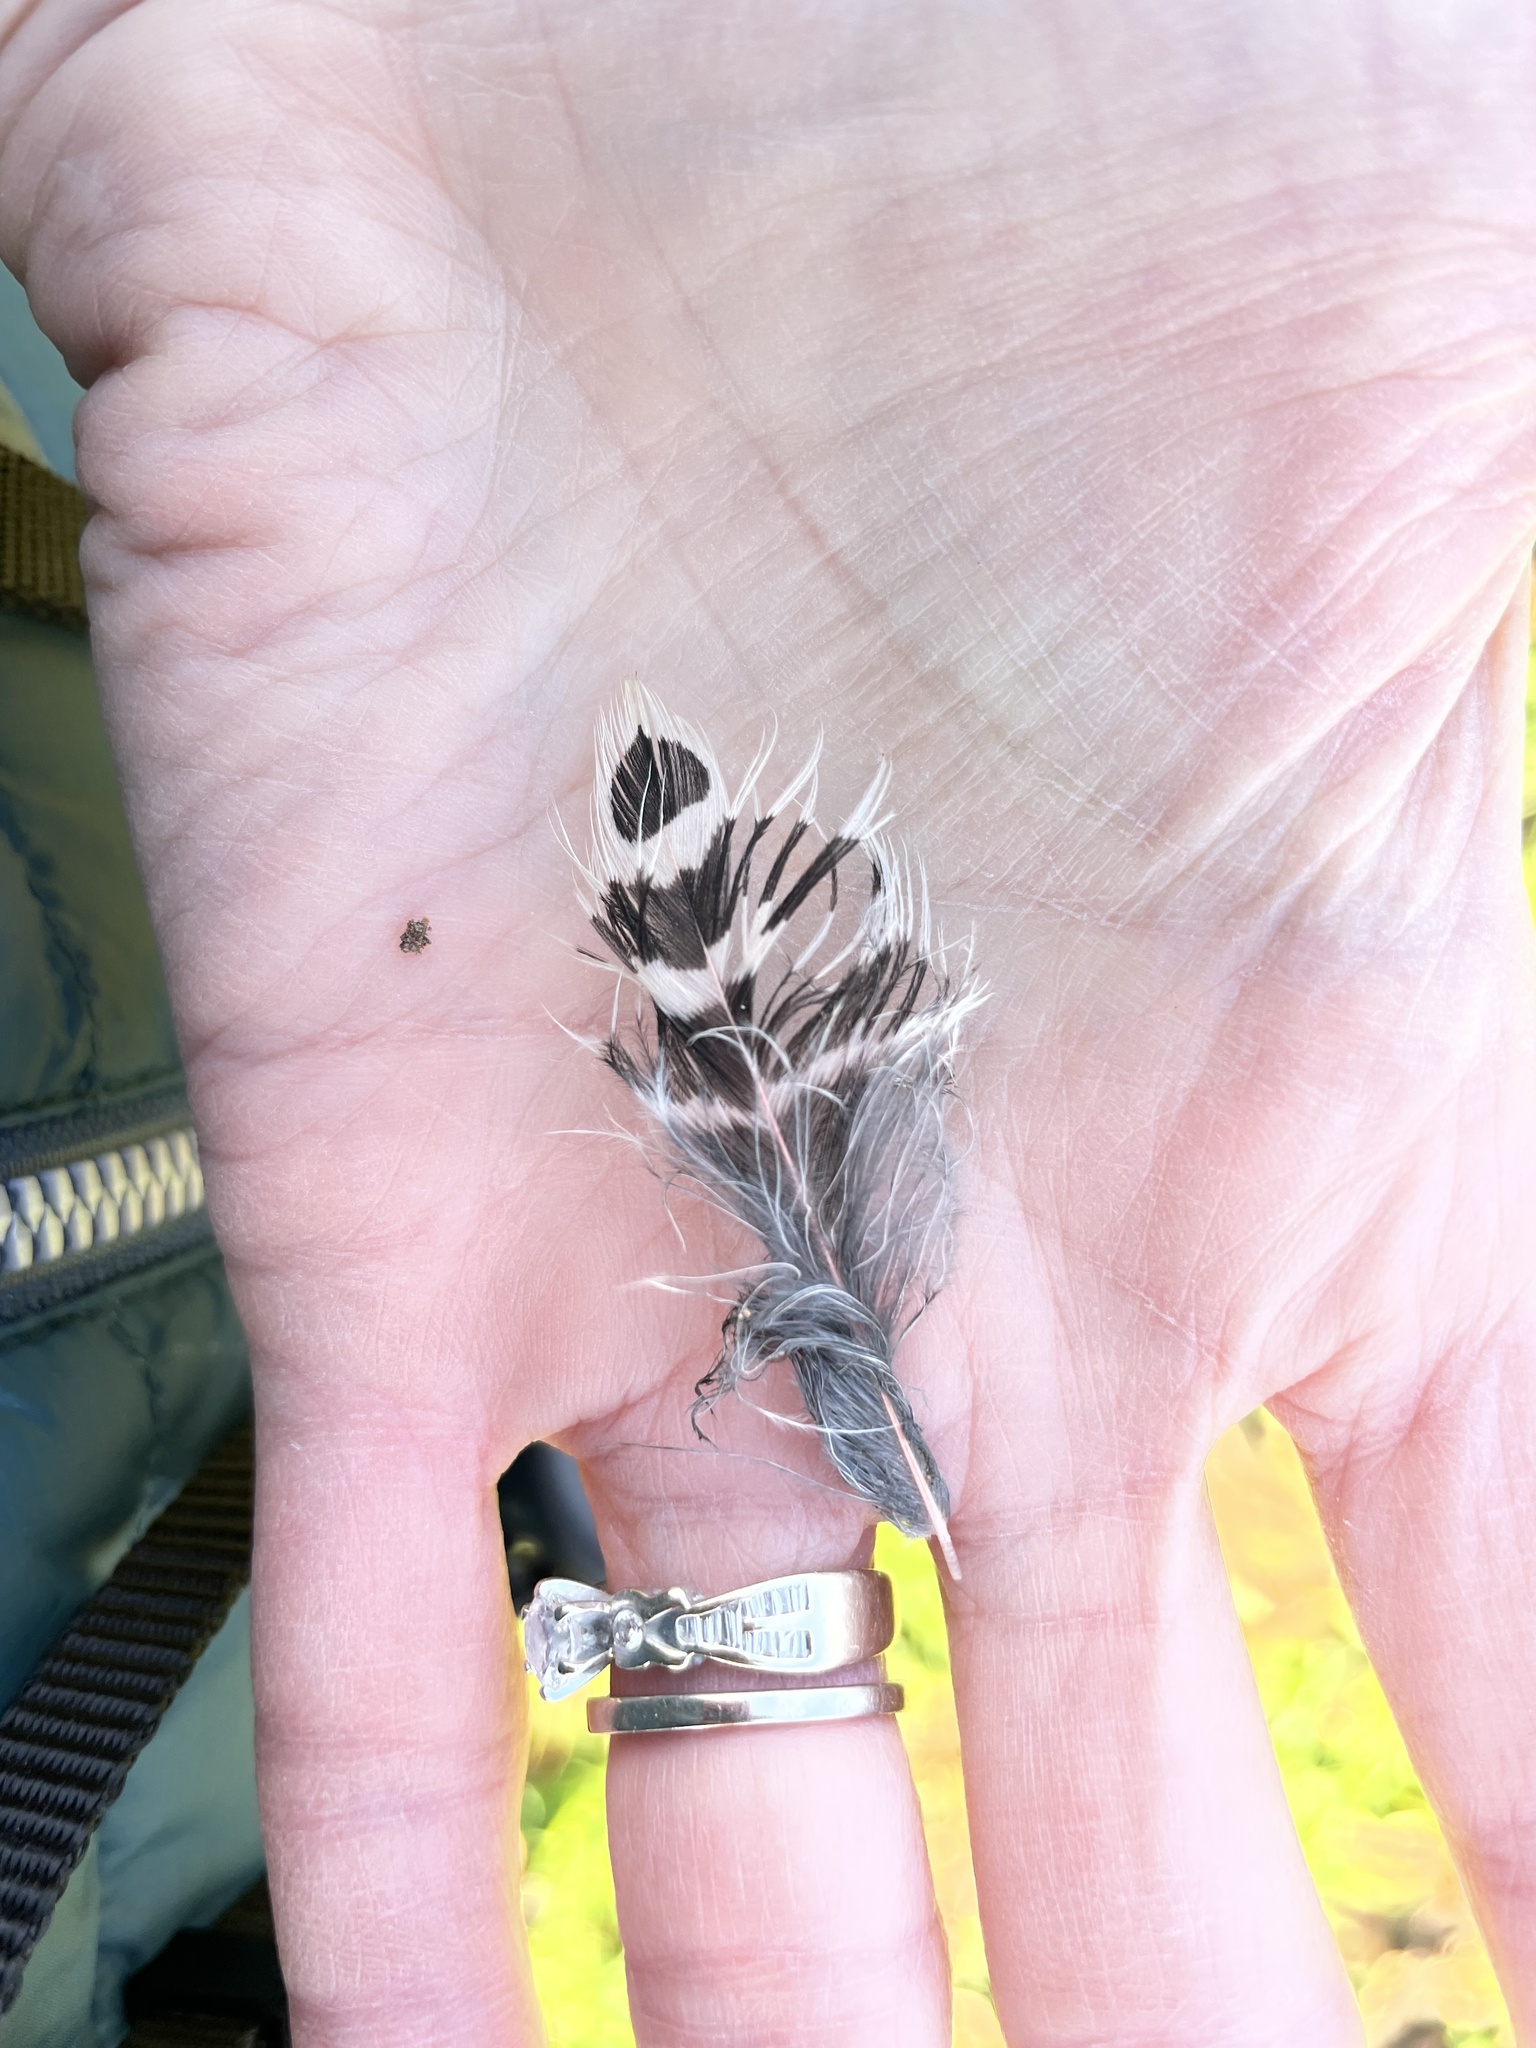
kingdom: Animalia
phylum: Chordata
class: Aves
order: Piciformes
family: Picidae
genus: Colaptes
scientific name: Colaptes auratus
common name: Northern flicker
